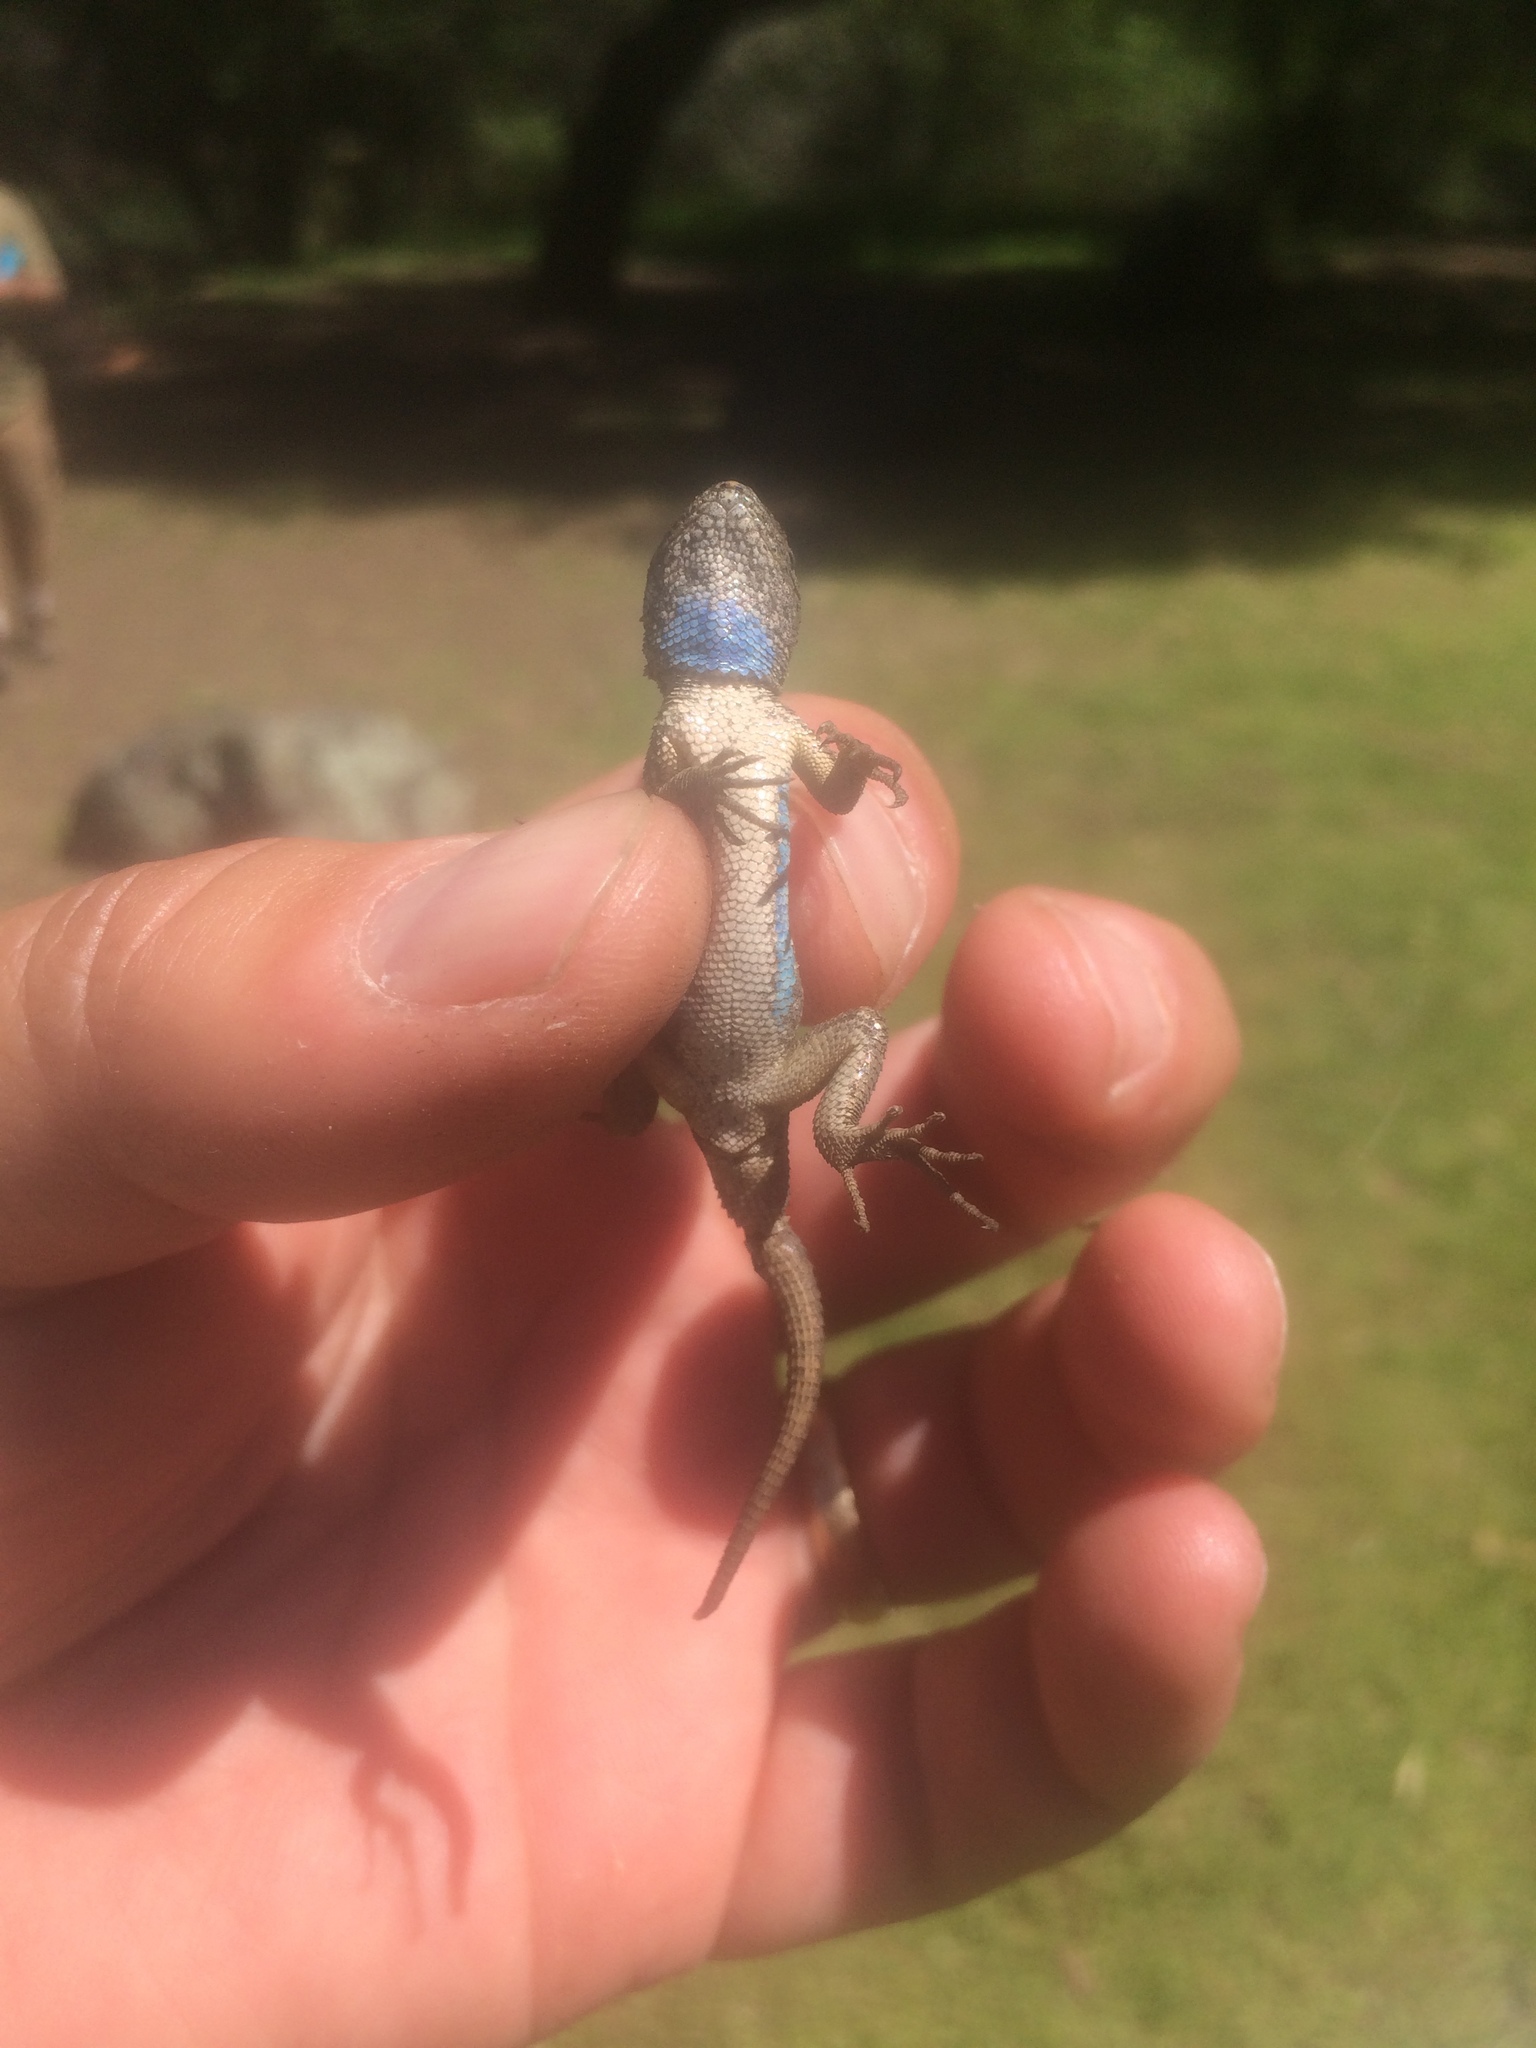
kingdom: Animalia
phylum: Chordata
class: Squamata
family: Phrynosomatidae
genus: Sceloporus
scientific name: Sceloporus occidentalis
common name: Western fence lizard
